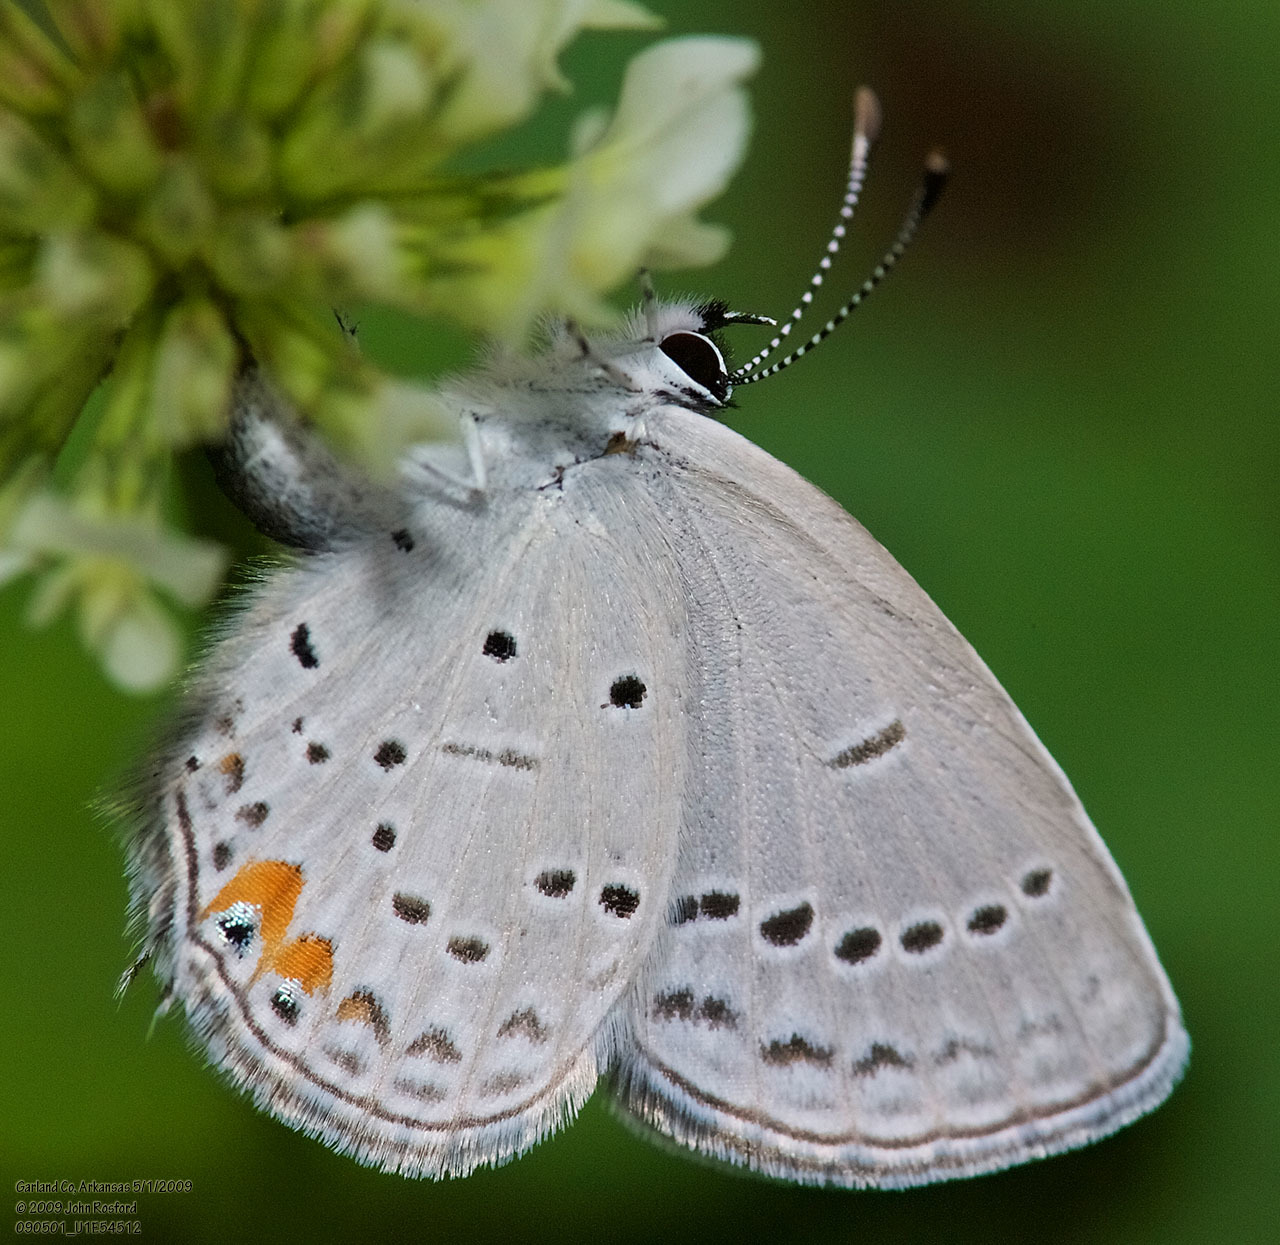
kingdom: Animalia
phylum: Arthropoda
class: Insecta
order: Lepidoptera
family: Lycaenidae
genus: Elkalyce
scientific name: Elkalyce comyntas
